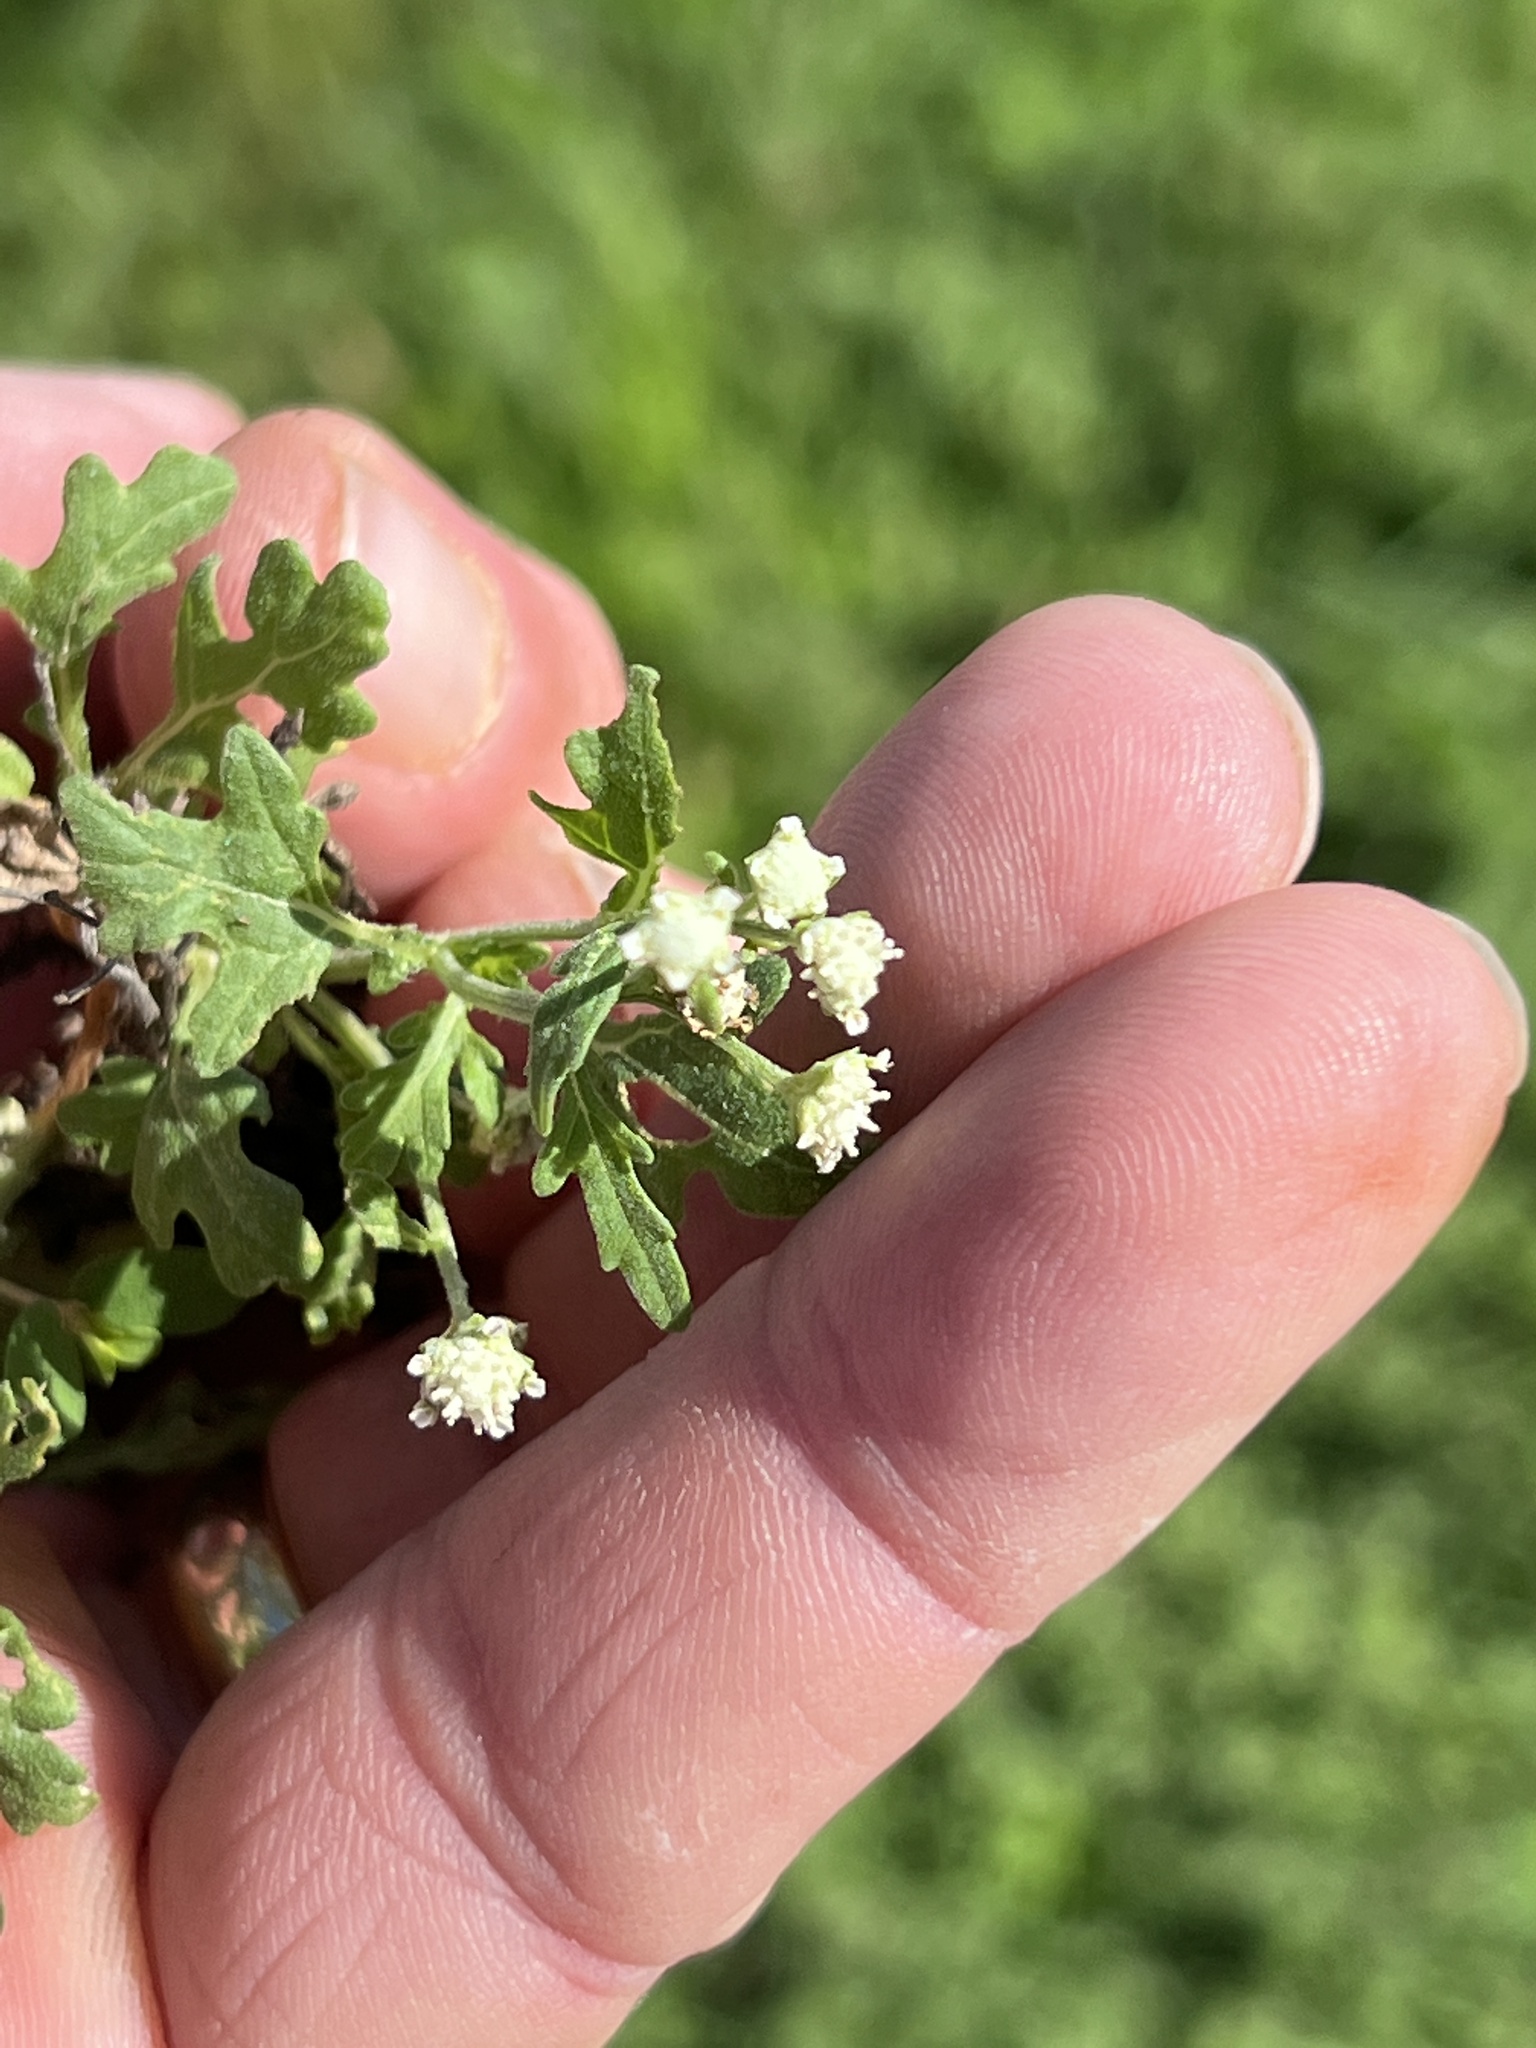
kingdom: Plantae
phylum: Tracheophyta
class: Magnoliopsida
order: Asterales
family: Asteraceae
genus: Parthenium
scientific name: Parthenium hysterophorus
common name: Santa maria feverfew
